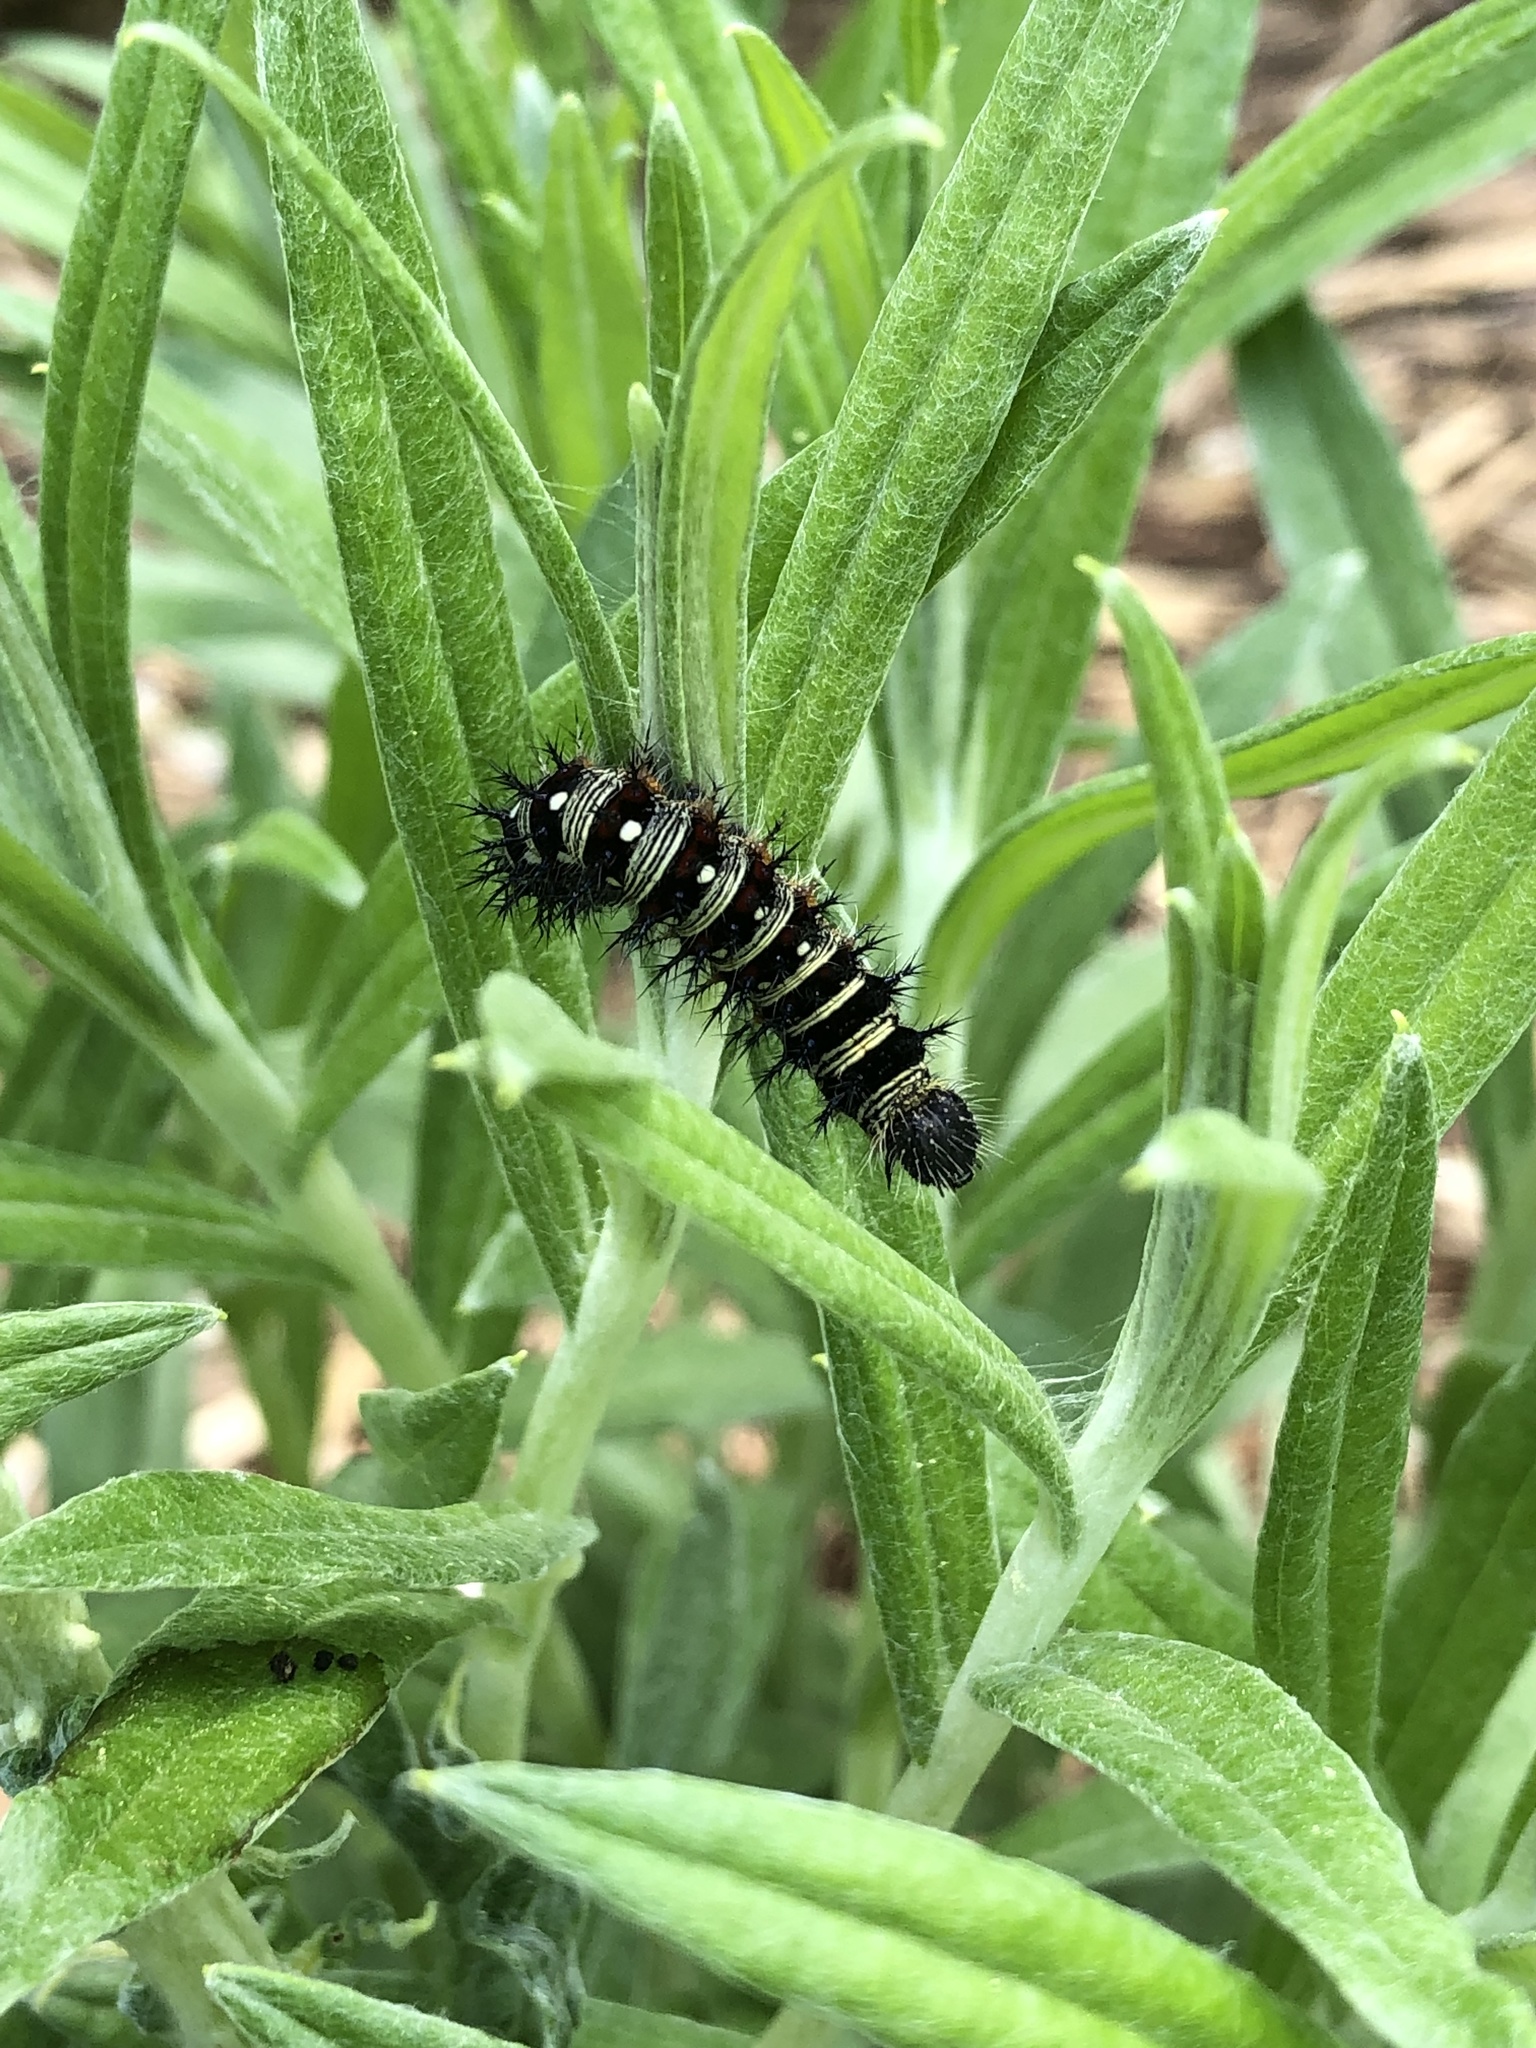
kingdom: Animalia
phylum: Arthropoda
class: Insecta
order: Lepidoptera
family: Nymphalidae
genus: Vanessa
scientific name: Vanessa virginiensis
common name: American lady
